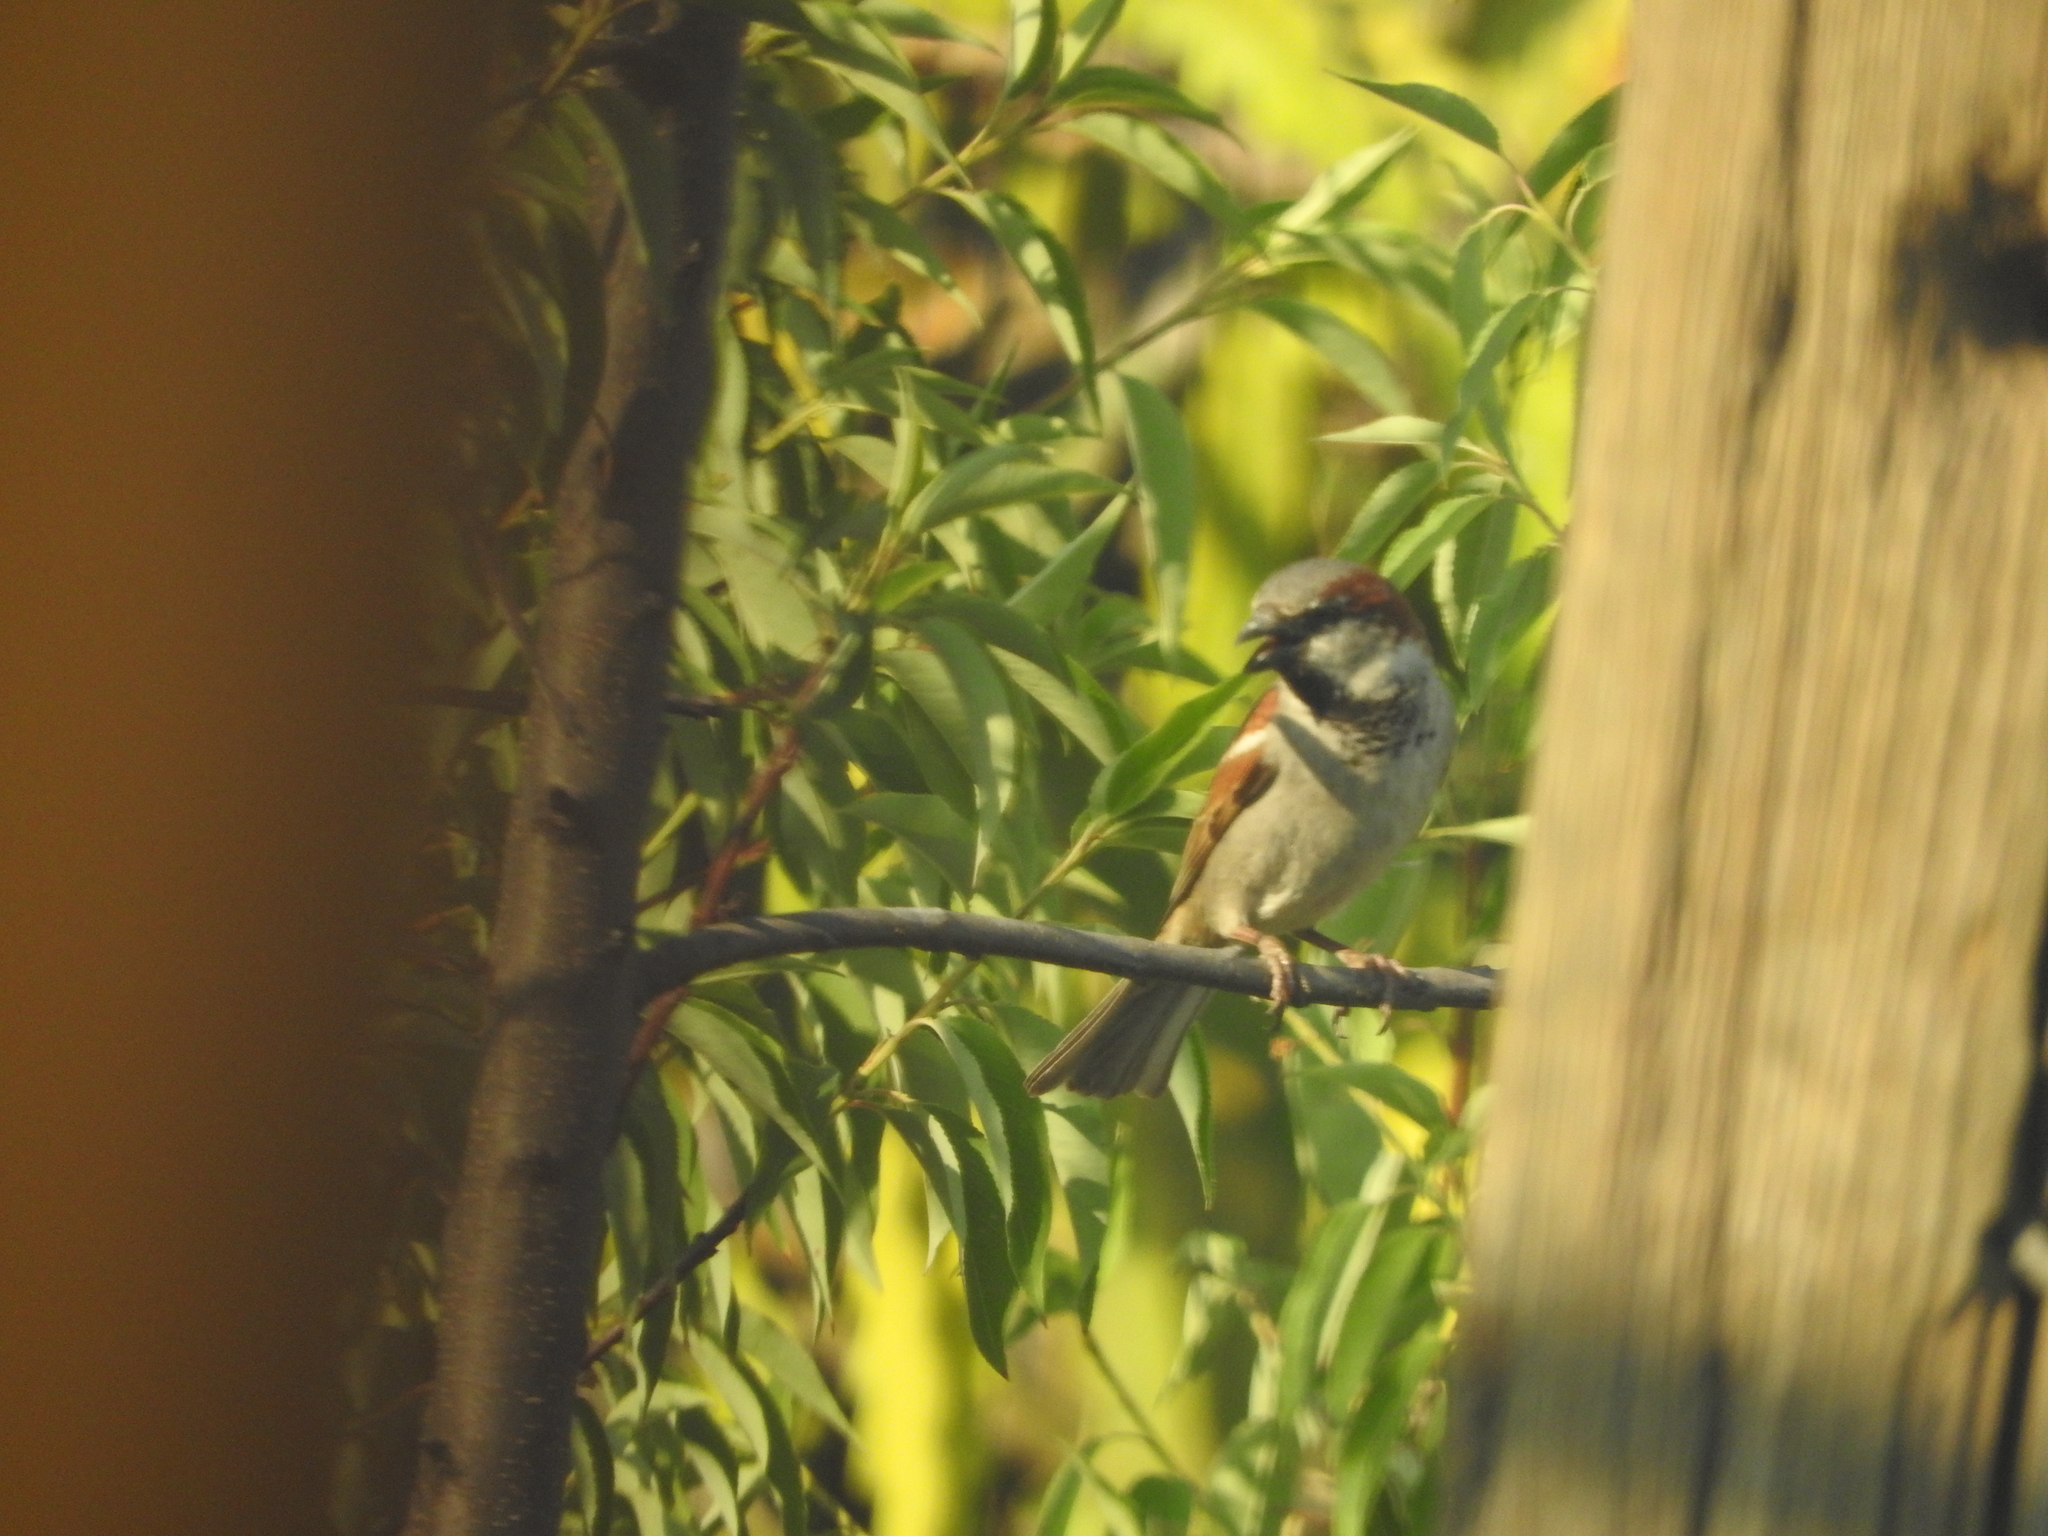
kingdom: Animalia
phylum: Chordata
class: Aves
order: Passeriformes
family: Passeridae
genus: Passer
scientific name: Passer domesticus
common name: House sparrow
